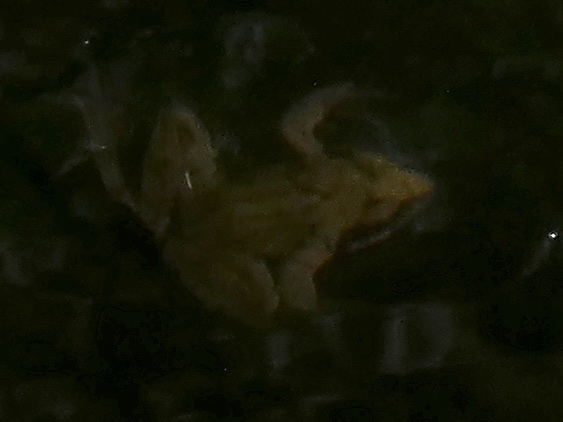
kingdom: Animalia
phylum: Chordata
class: Amphibia
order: Anura
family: Ranidae
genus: Rana
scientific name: Rana temporaria
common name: Common frog
